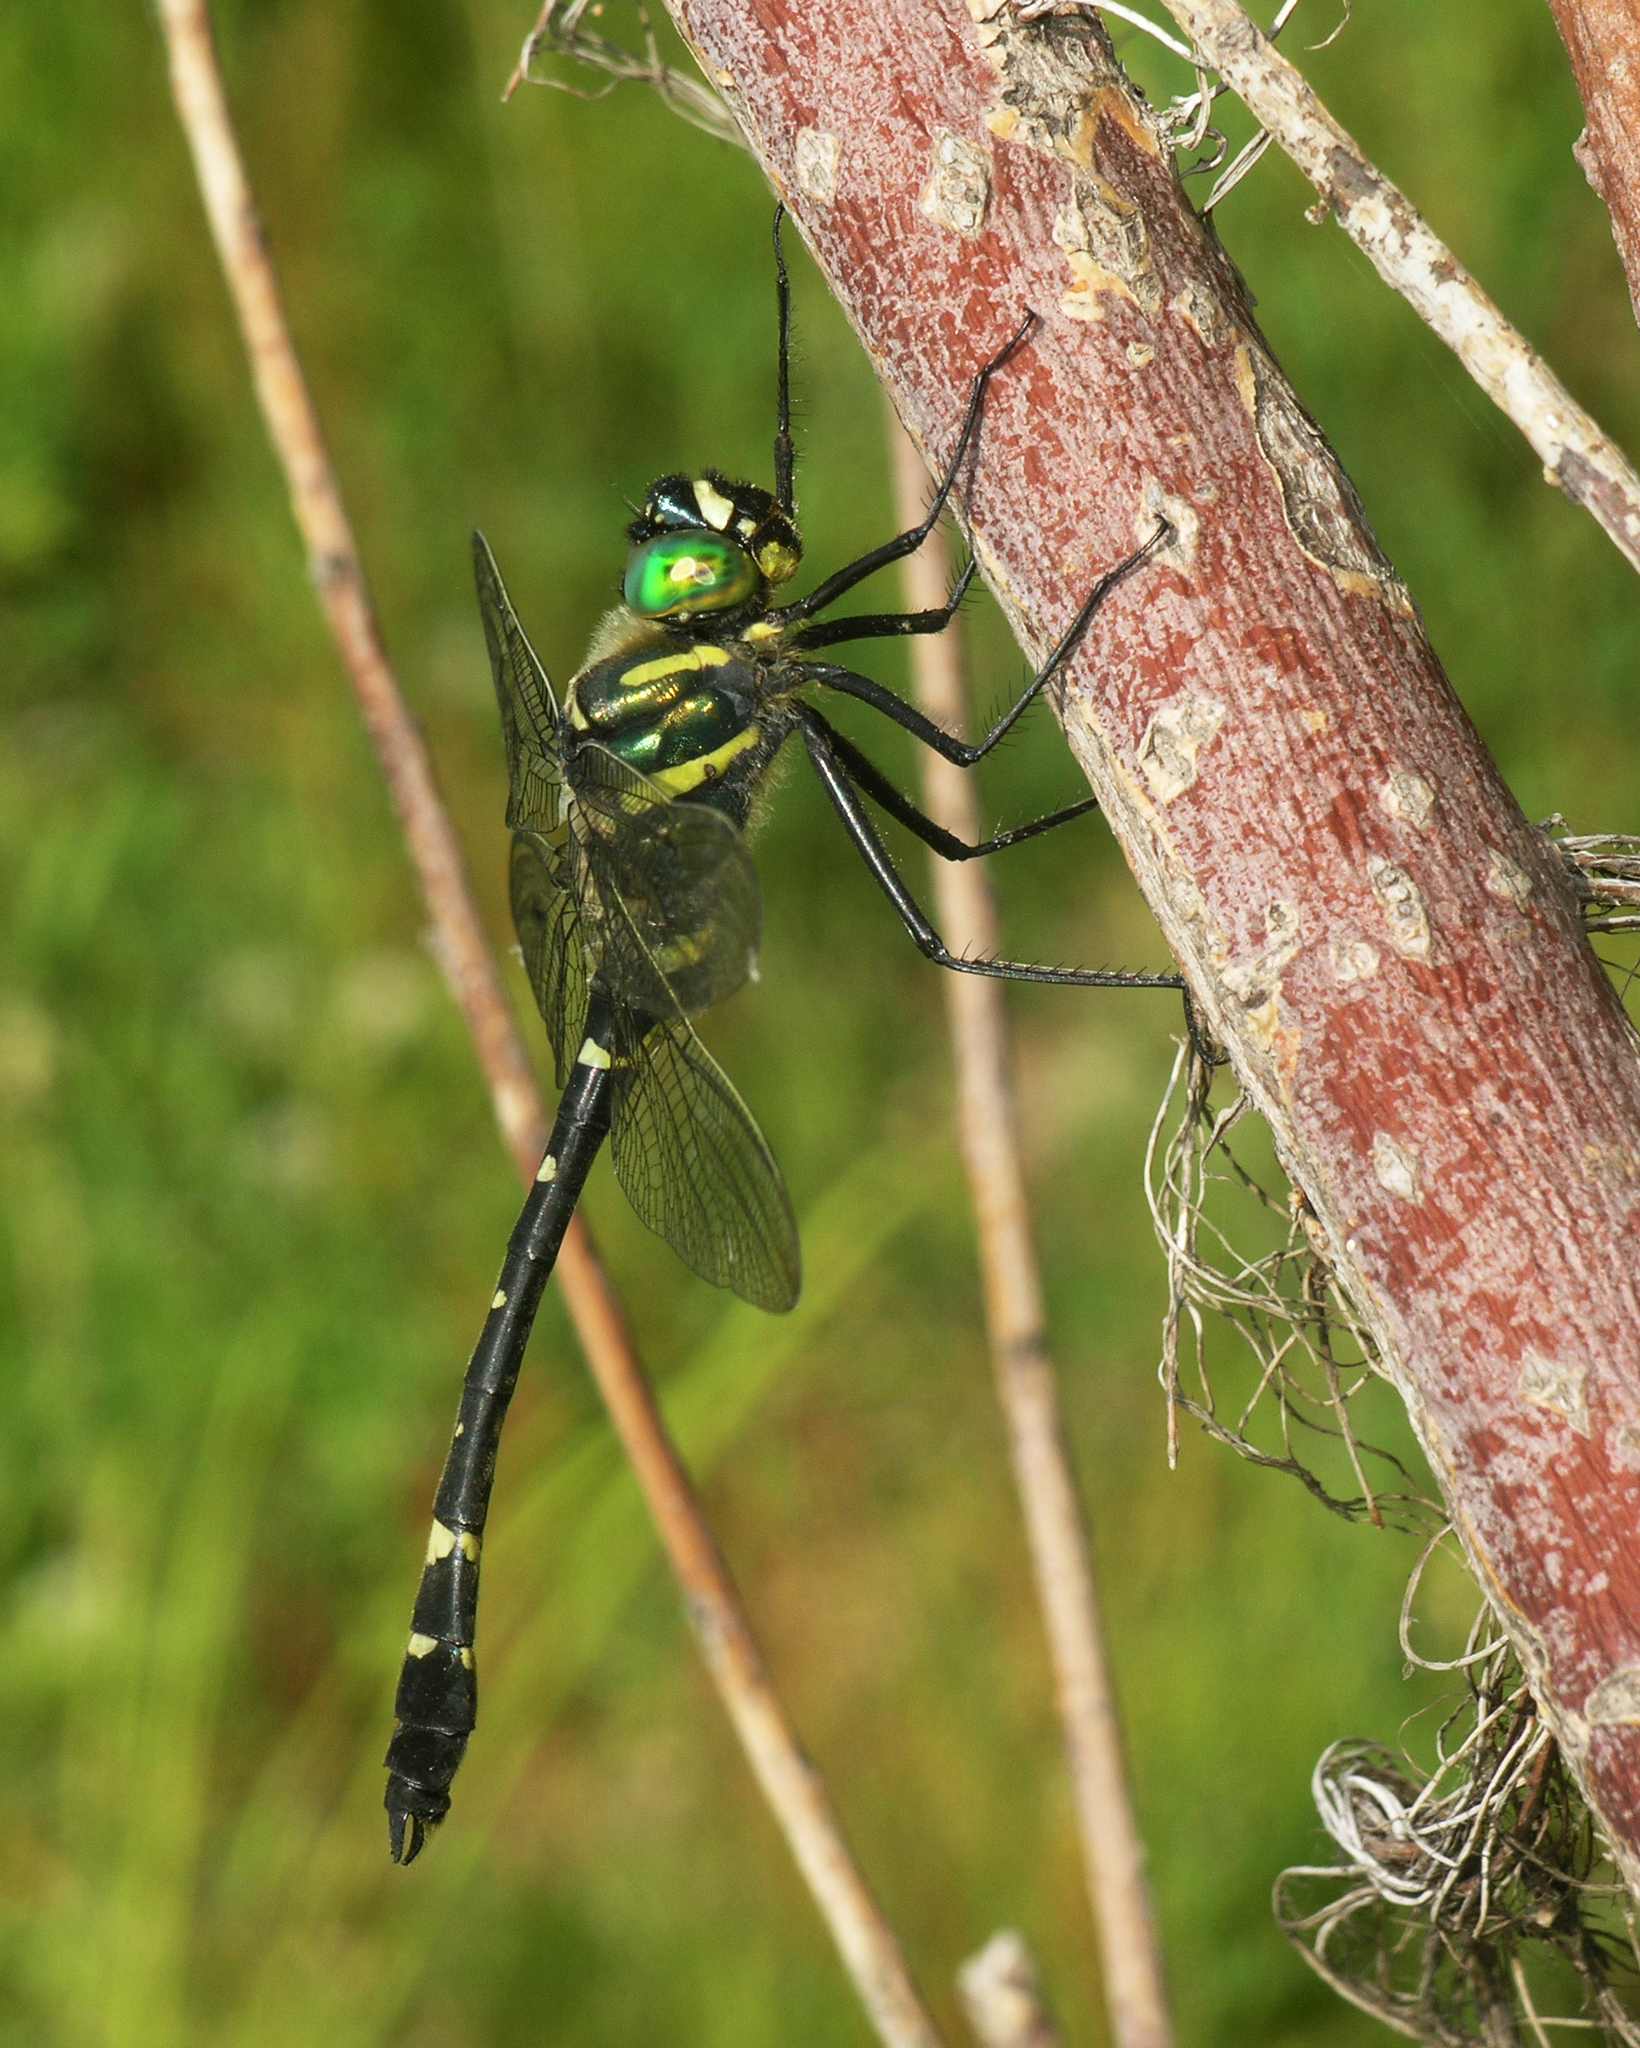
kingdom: Animalia
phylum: Arthropoda
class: Insecta
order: Odonata
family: Macromiidae
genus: Macromia
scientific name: Macromia amphigena
